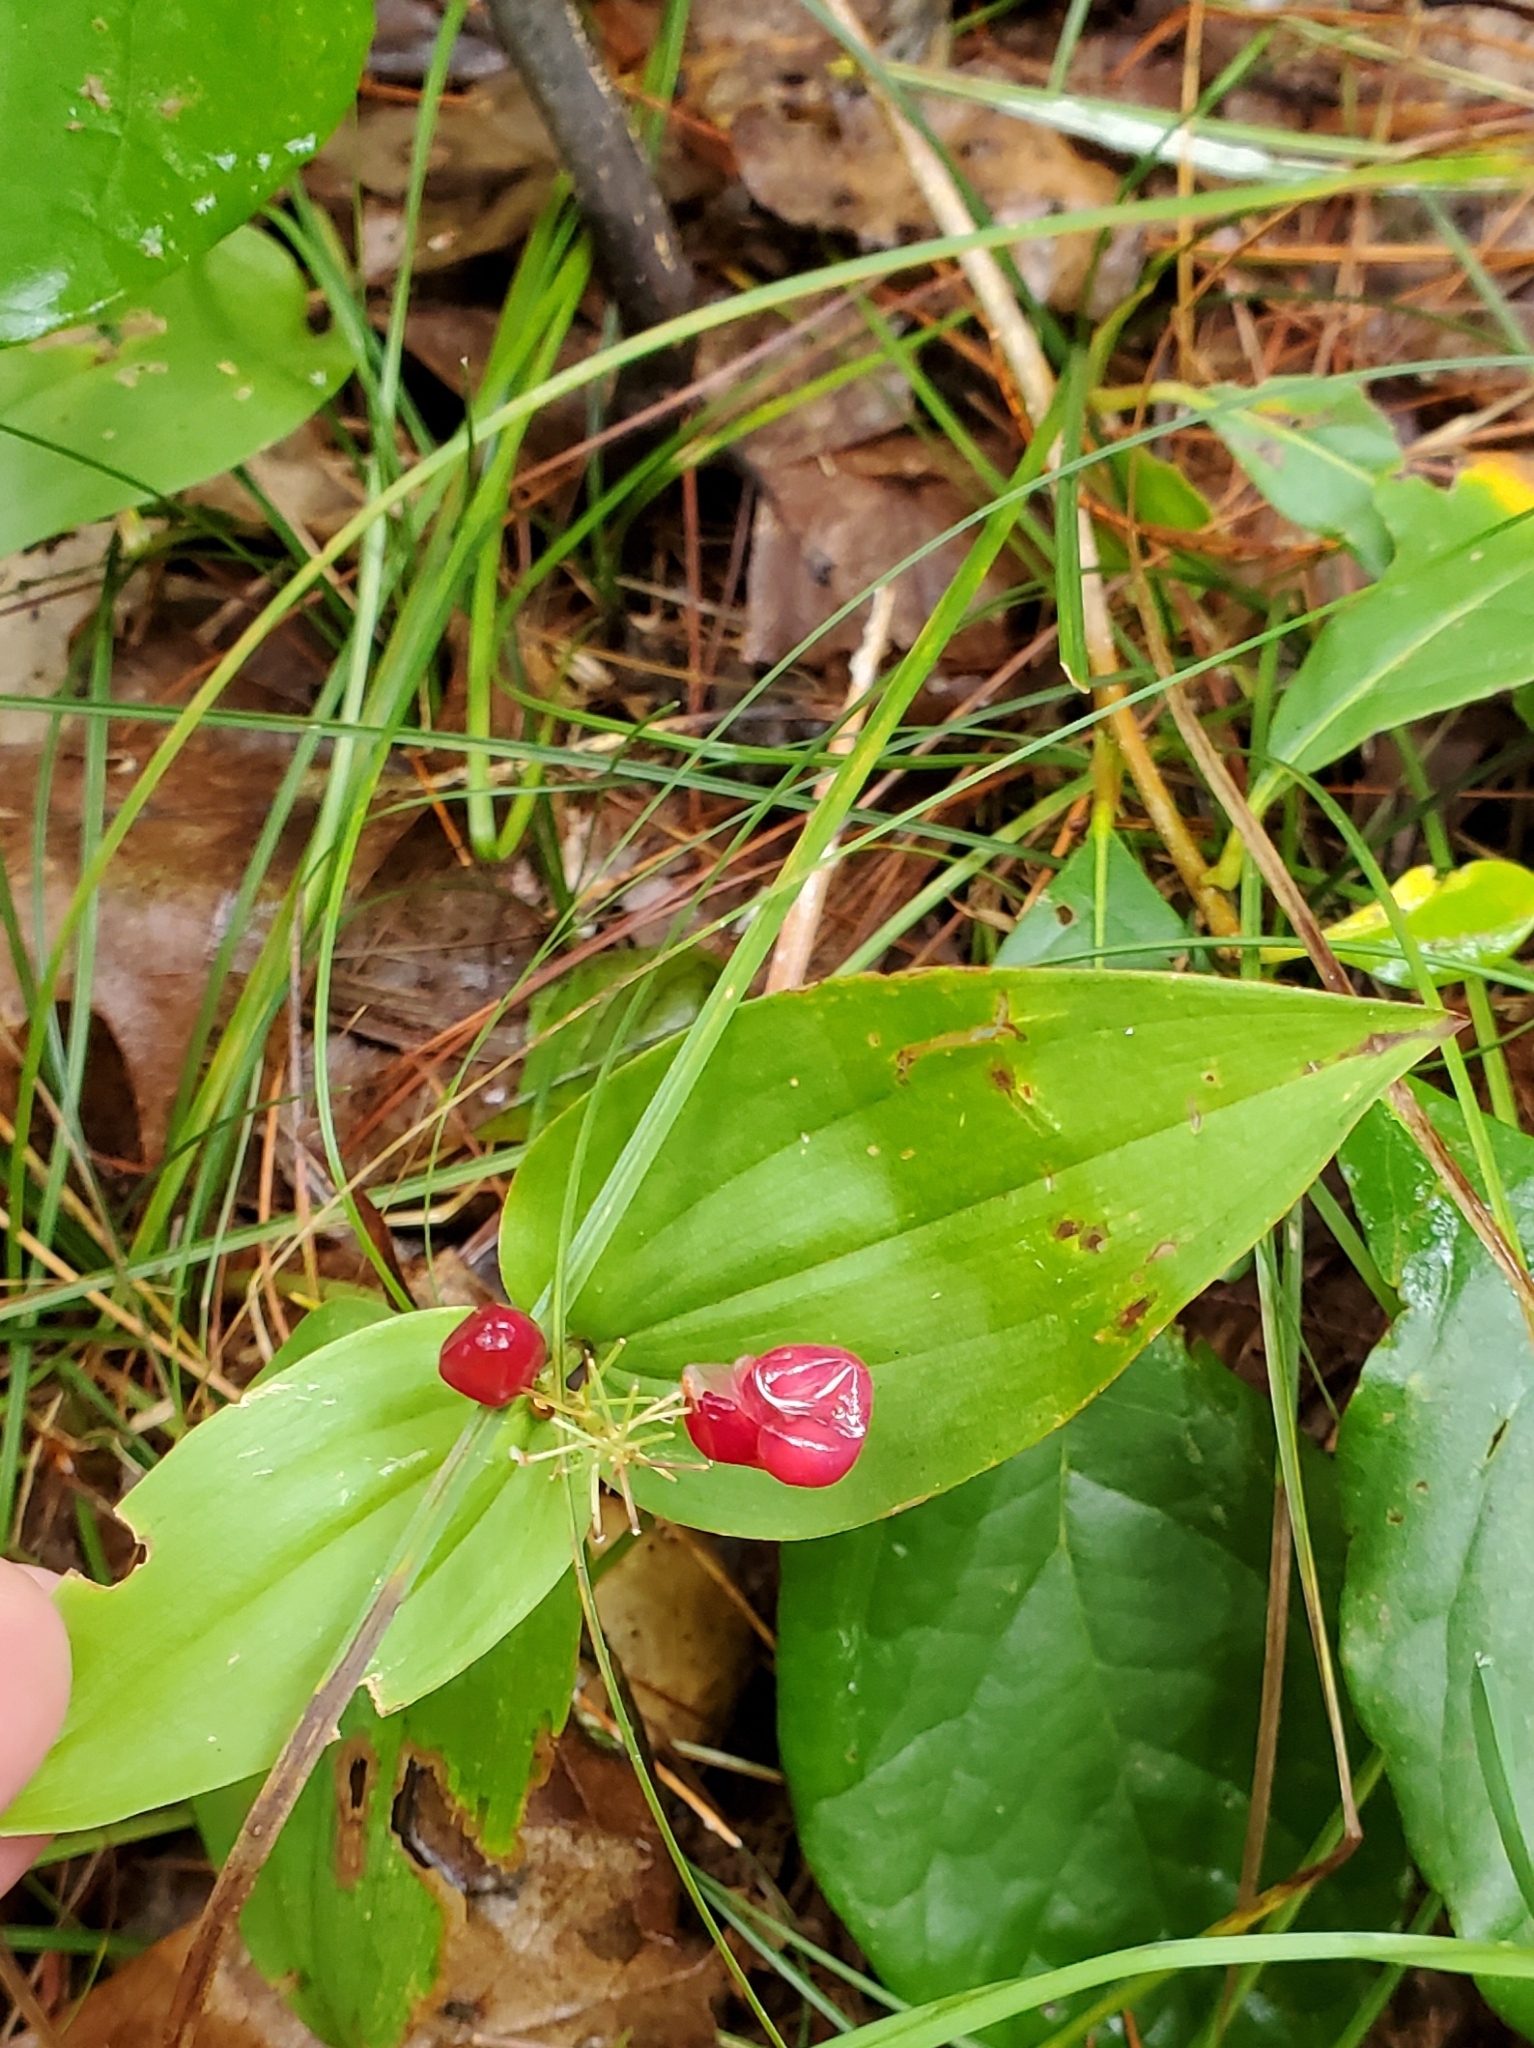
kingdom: Plantae
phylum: Tracheophyta
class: Liliopsida
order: Asparagales
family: Asparagaceae
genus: Maianthemum
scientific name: Maianthemum canadense
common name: False lily-of-the-valley
